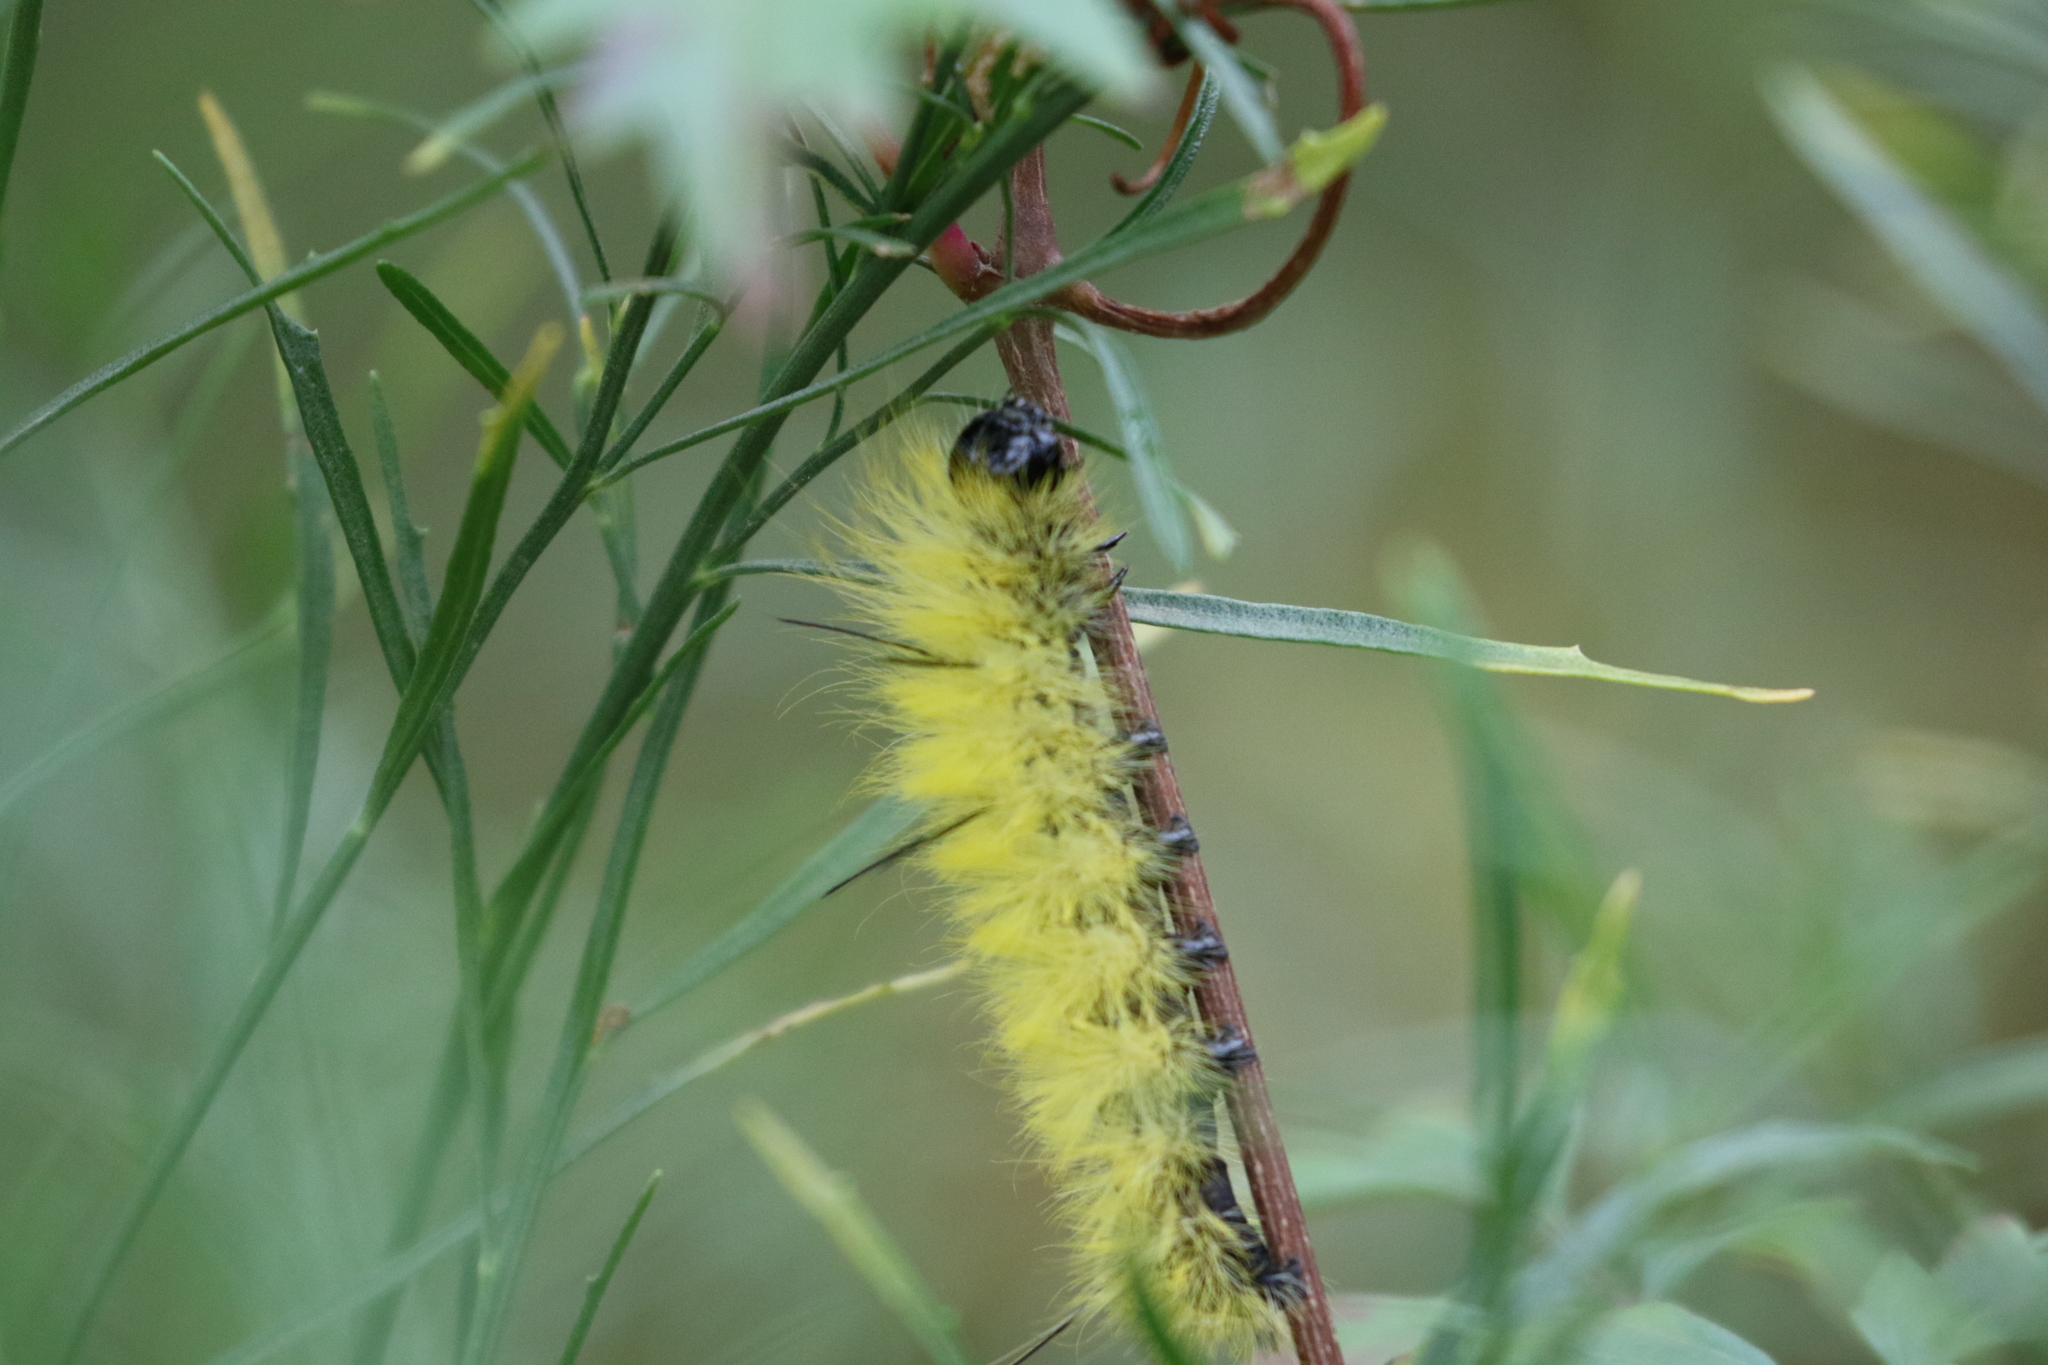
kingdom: Animalia
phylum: Arthropoda
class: Insecta
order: Lepidoptera
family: Noctuidae
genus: Acronicta
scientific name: Acronicta americana
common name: American dagger
